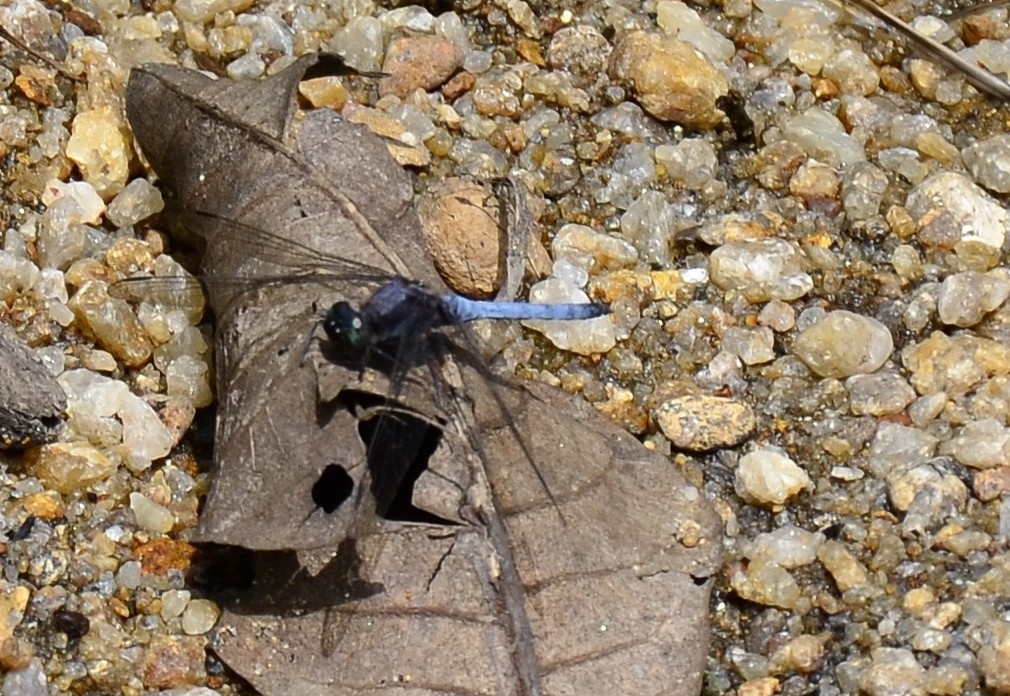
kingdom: Animalia
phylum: Arthropoda
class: Insecta
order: Odonata
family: Libellulidae
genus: Orthetrum
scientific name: Orthetrum glaucum
